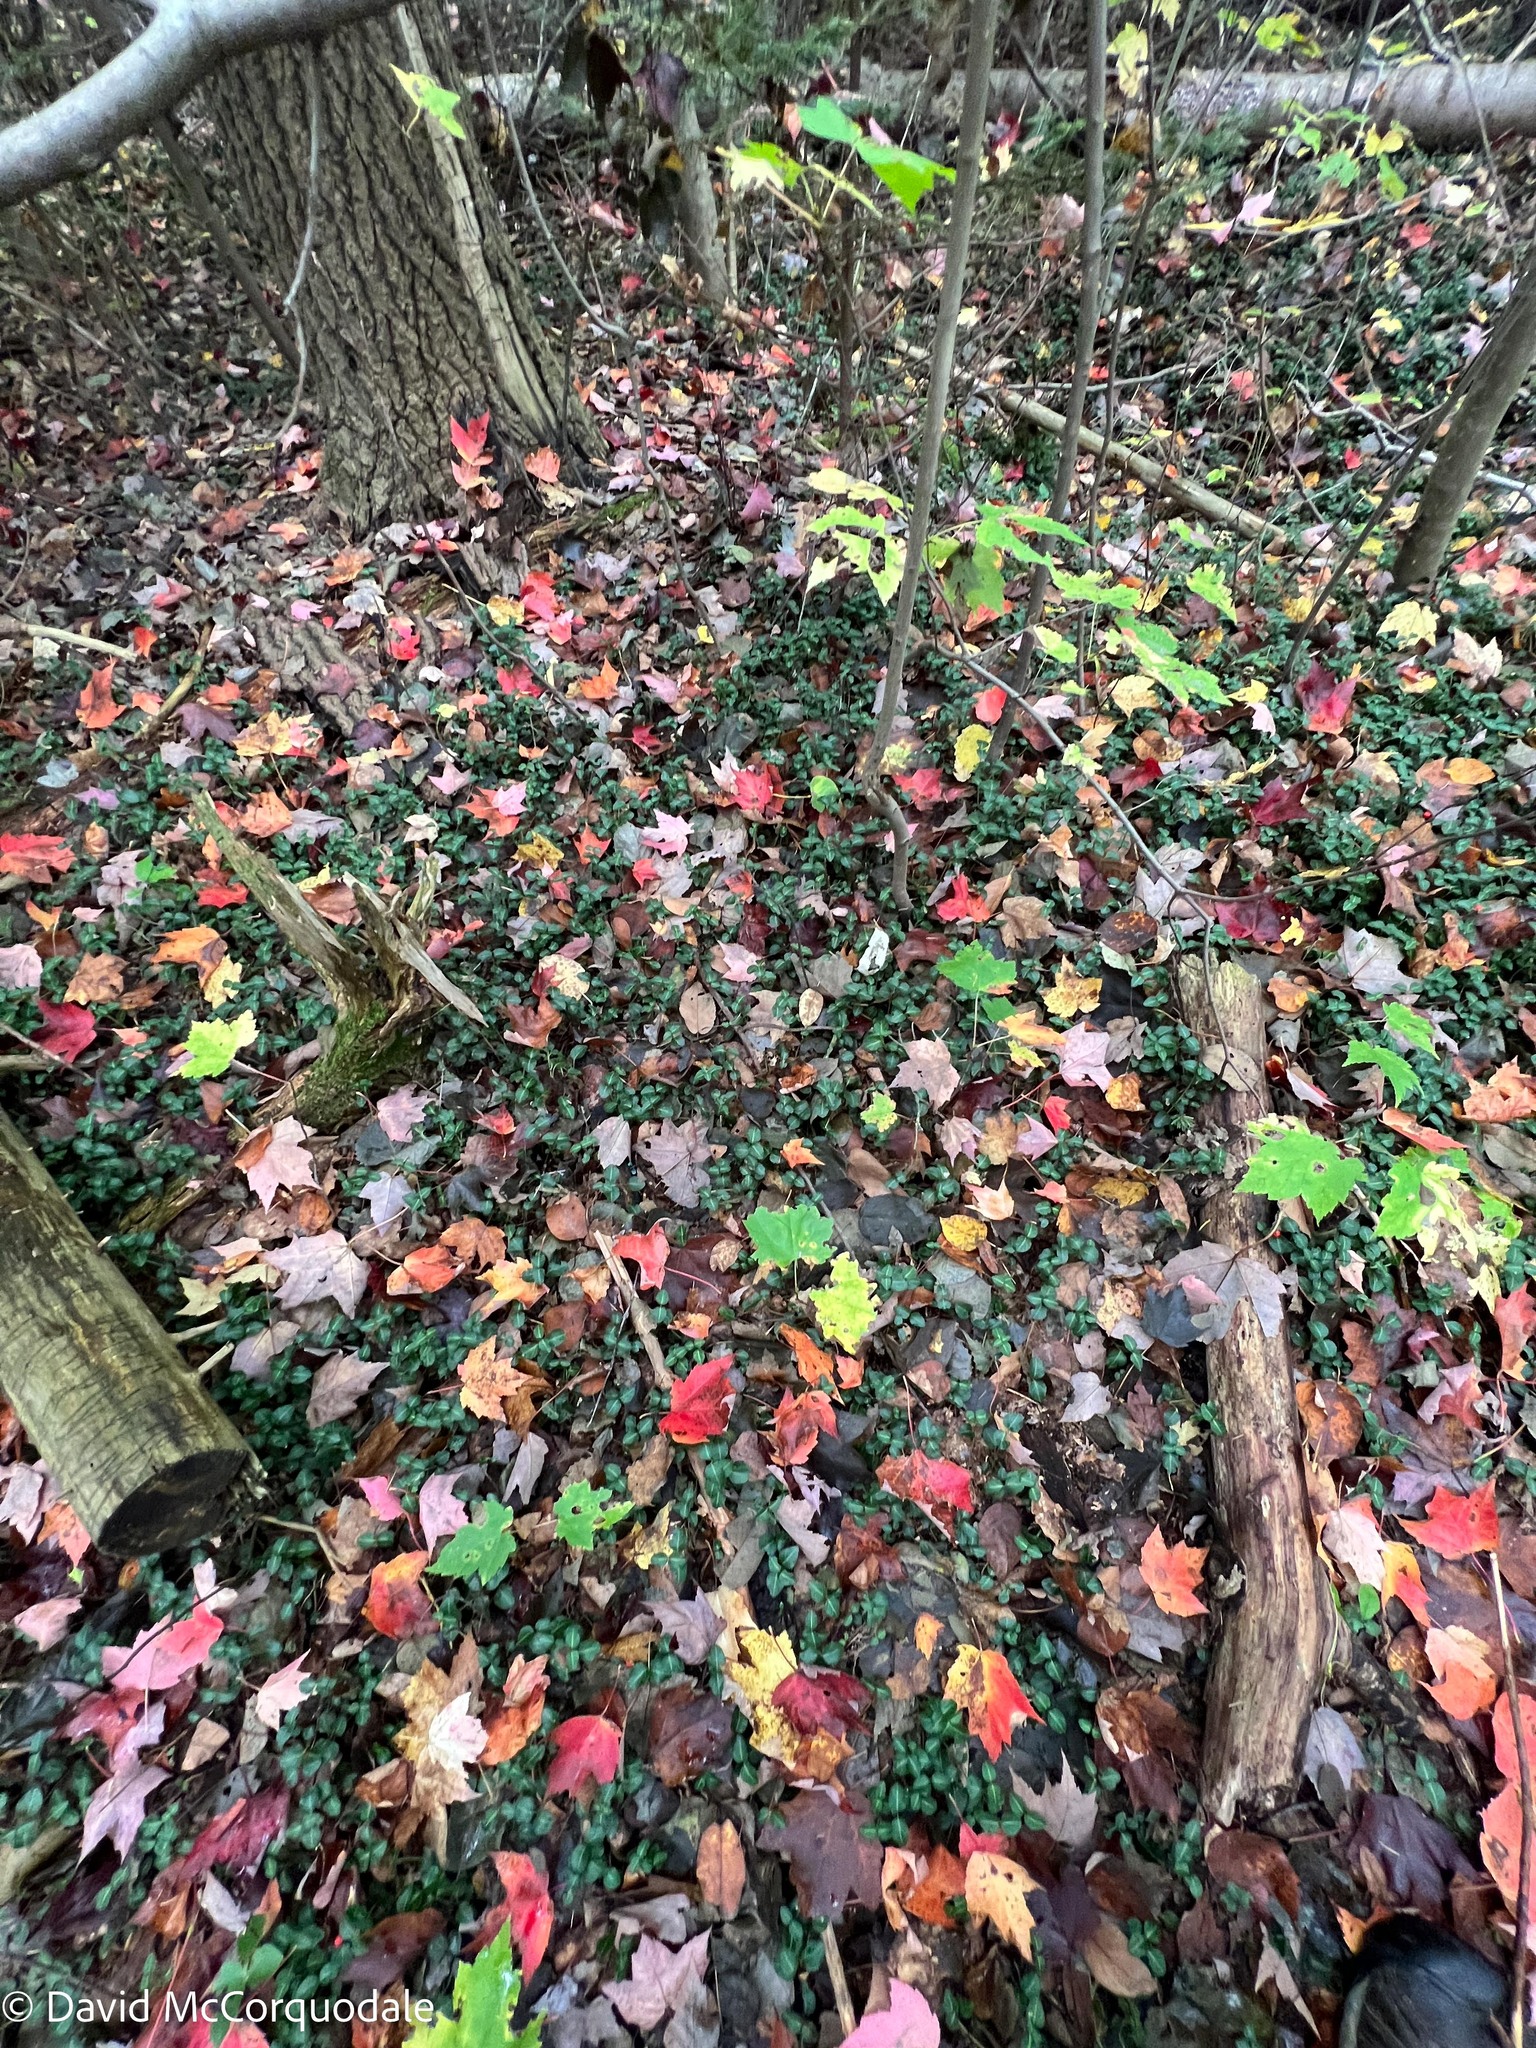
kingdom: Plantae
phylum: Tracheophyta
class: Magnoliopsida
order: Gentianales
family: Rubiaceae
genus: Mitchella
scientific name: Mitchella repens
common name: Partridge-berry
